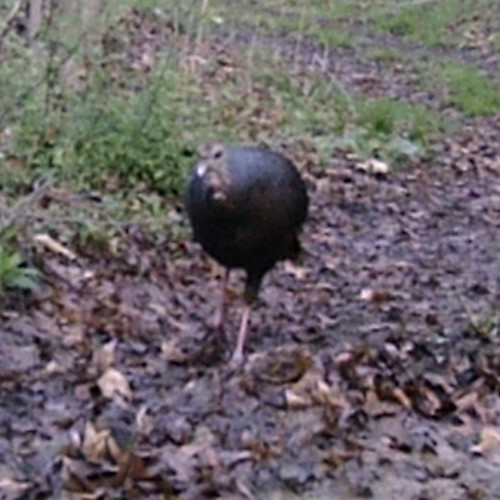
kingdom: Animalia
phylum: Chordata
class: Aves
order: Galliformes
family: Phasianidae
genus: Meleagris
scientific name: Meleagris gallopavo
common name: Wild turkey
